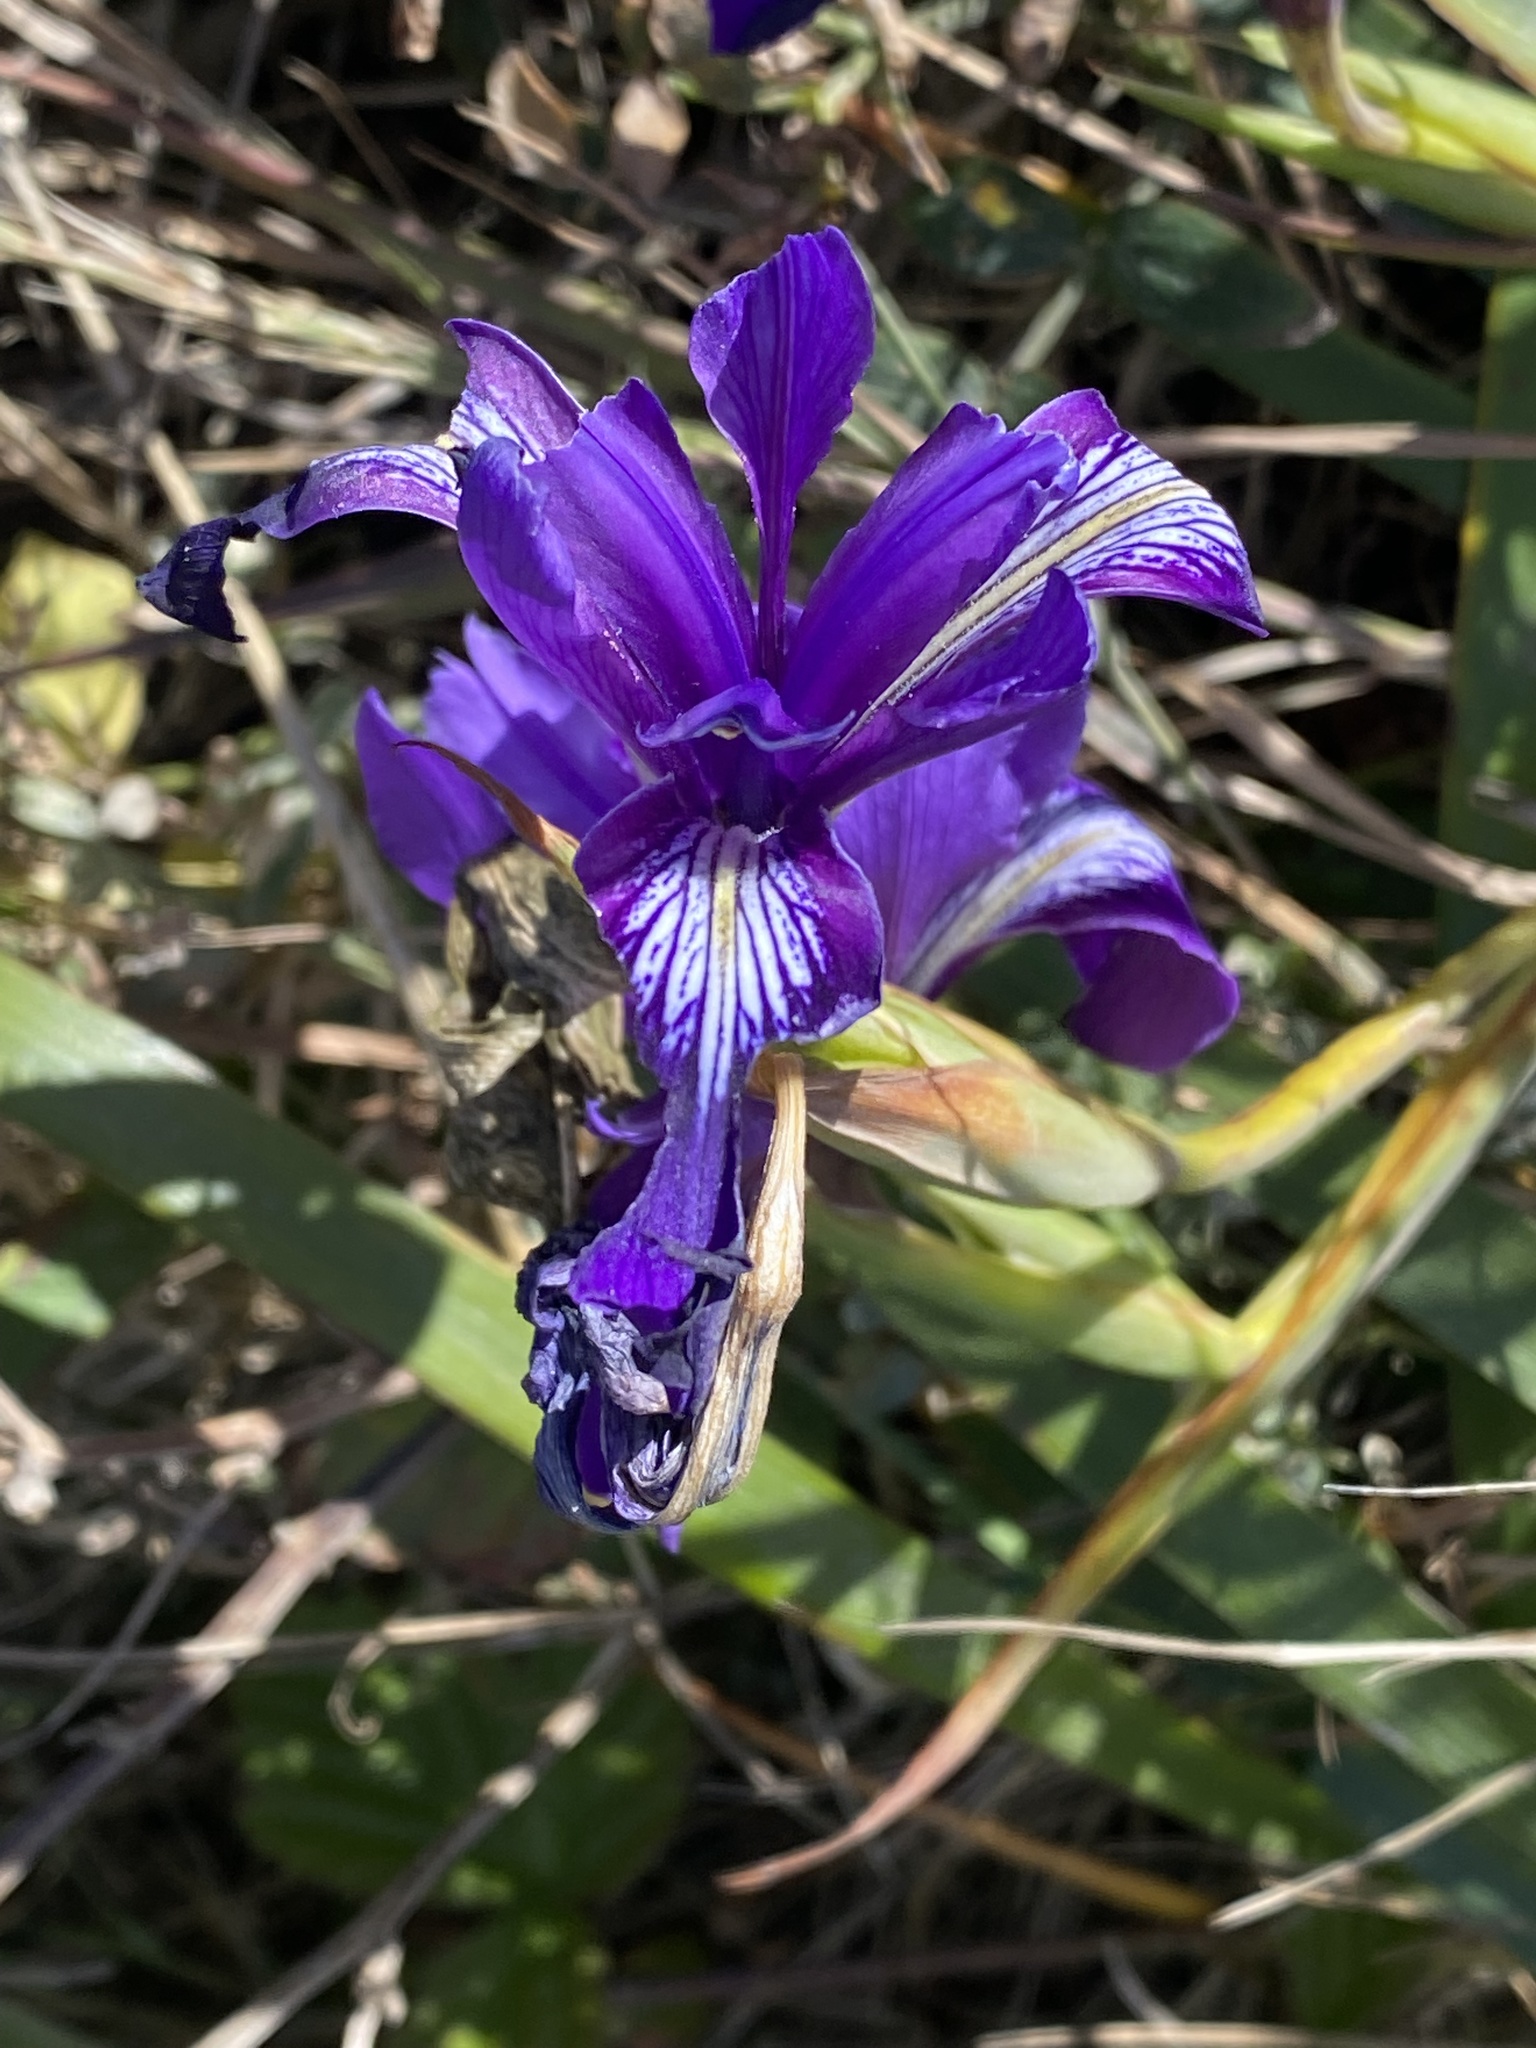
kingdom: Plantae
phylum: Tracheophyta
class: Liliopsida
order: Asparagales
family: Iridaceae
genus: Iris
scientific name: Iris douglasiana
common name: Marin iris
